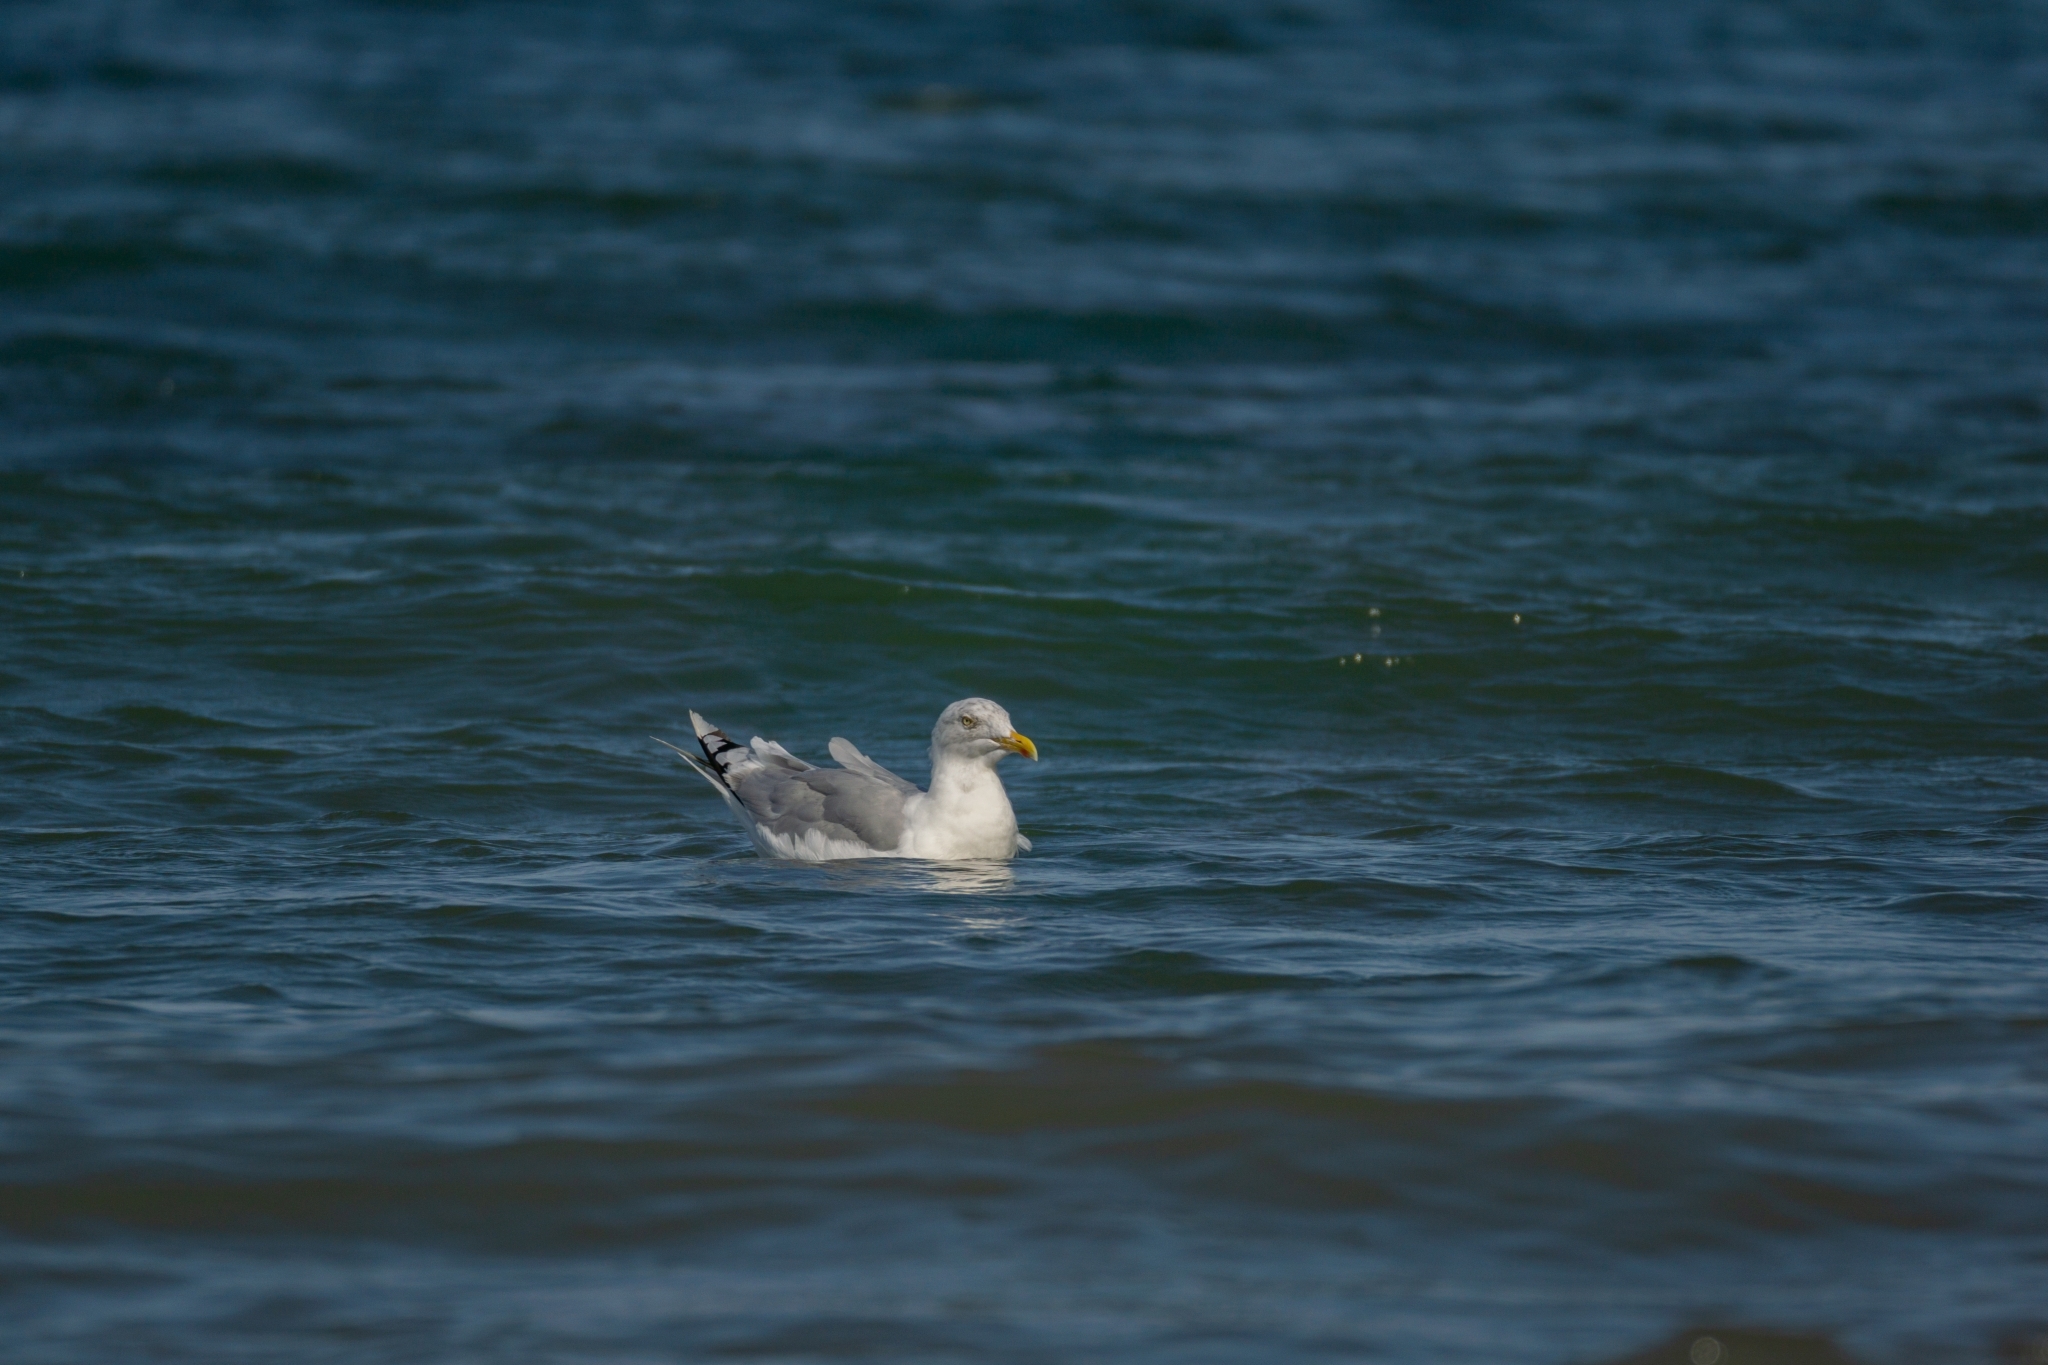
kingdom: Animalia
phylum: Chordata
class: Aves
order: Charadriiformes
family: Laridae
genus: Larus
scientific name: Larus argentatus
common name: Herring gull
